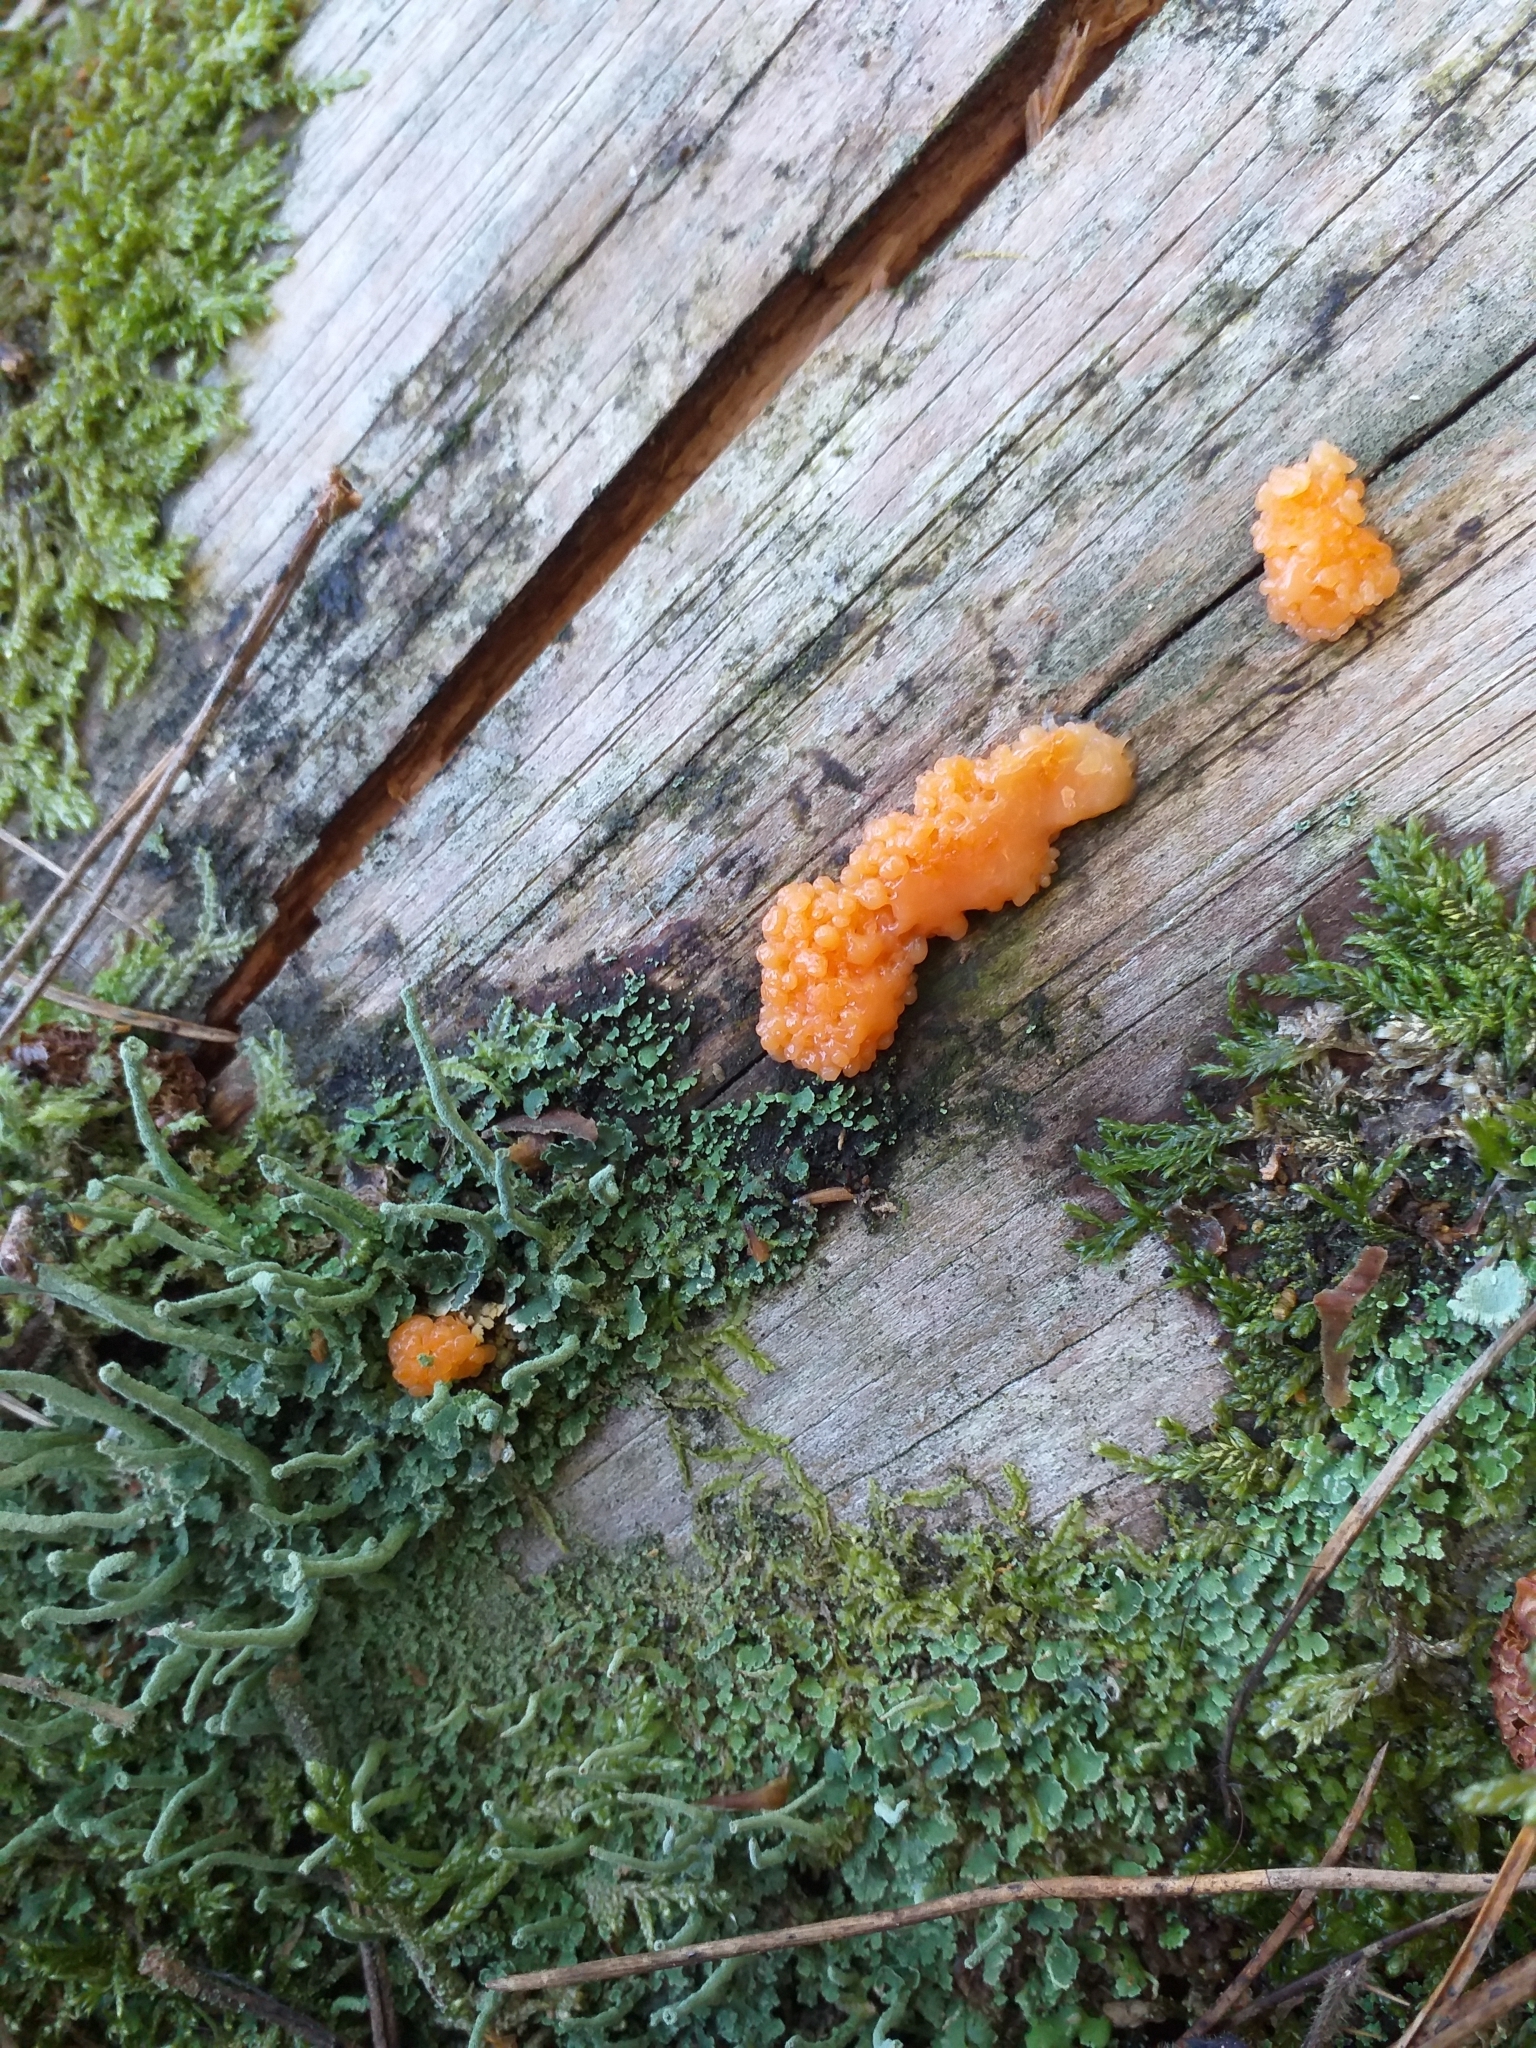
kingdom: Protozoa
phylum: Mycetozoa
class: Myxomycetes
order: Cribrariales
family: Tubiferaceae
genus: Tubifera
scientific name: Tubifera ferruginosa
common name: Red raspberry slime mold
